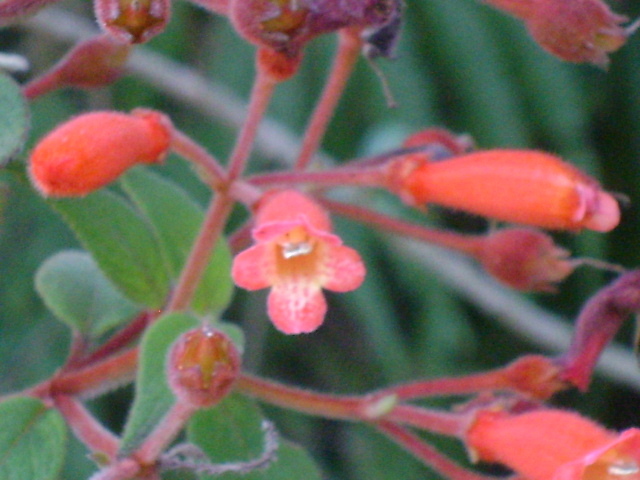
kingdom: Plantae
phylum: Tracheophyta
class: Magnoliopsida
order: Lamiales
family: Gesneriaceae
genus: Moussonia
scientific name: Moussonia deppeana
